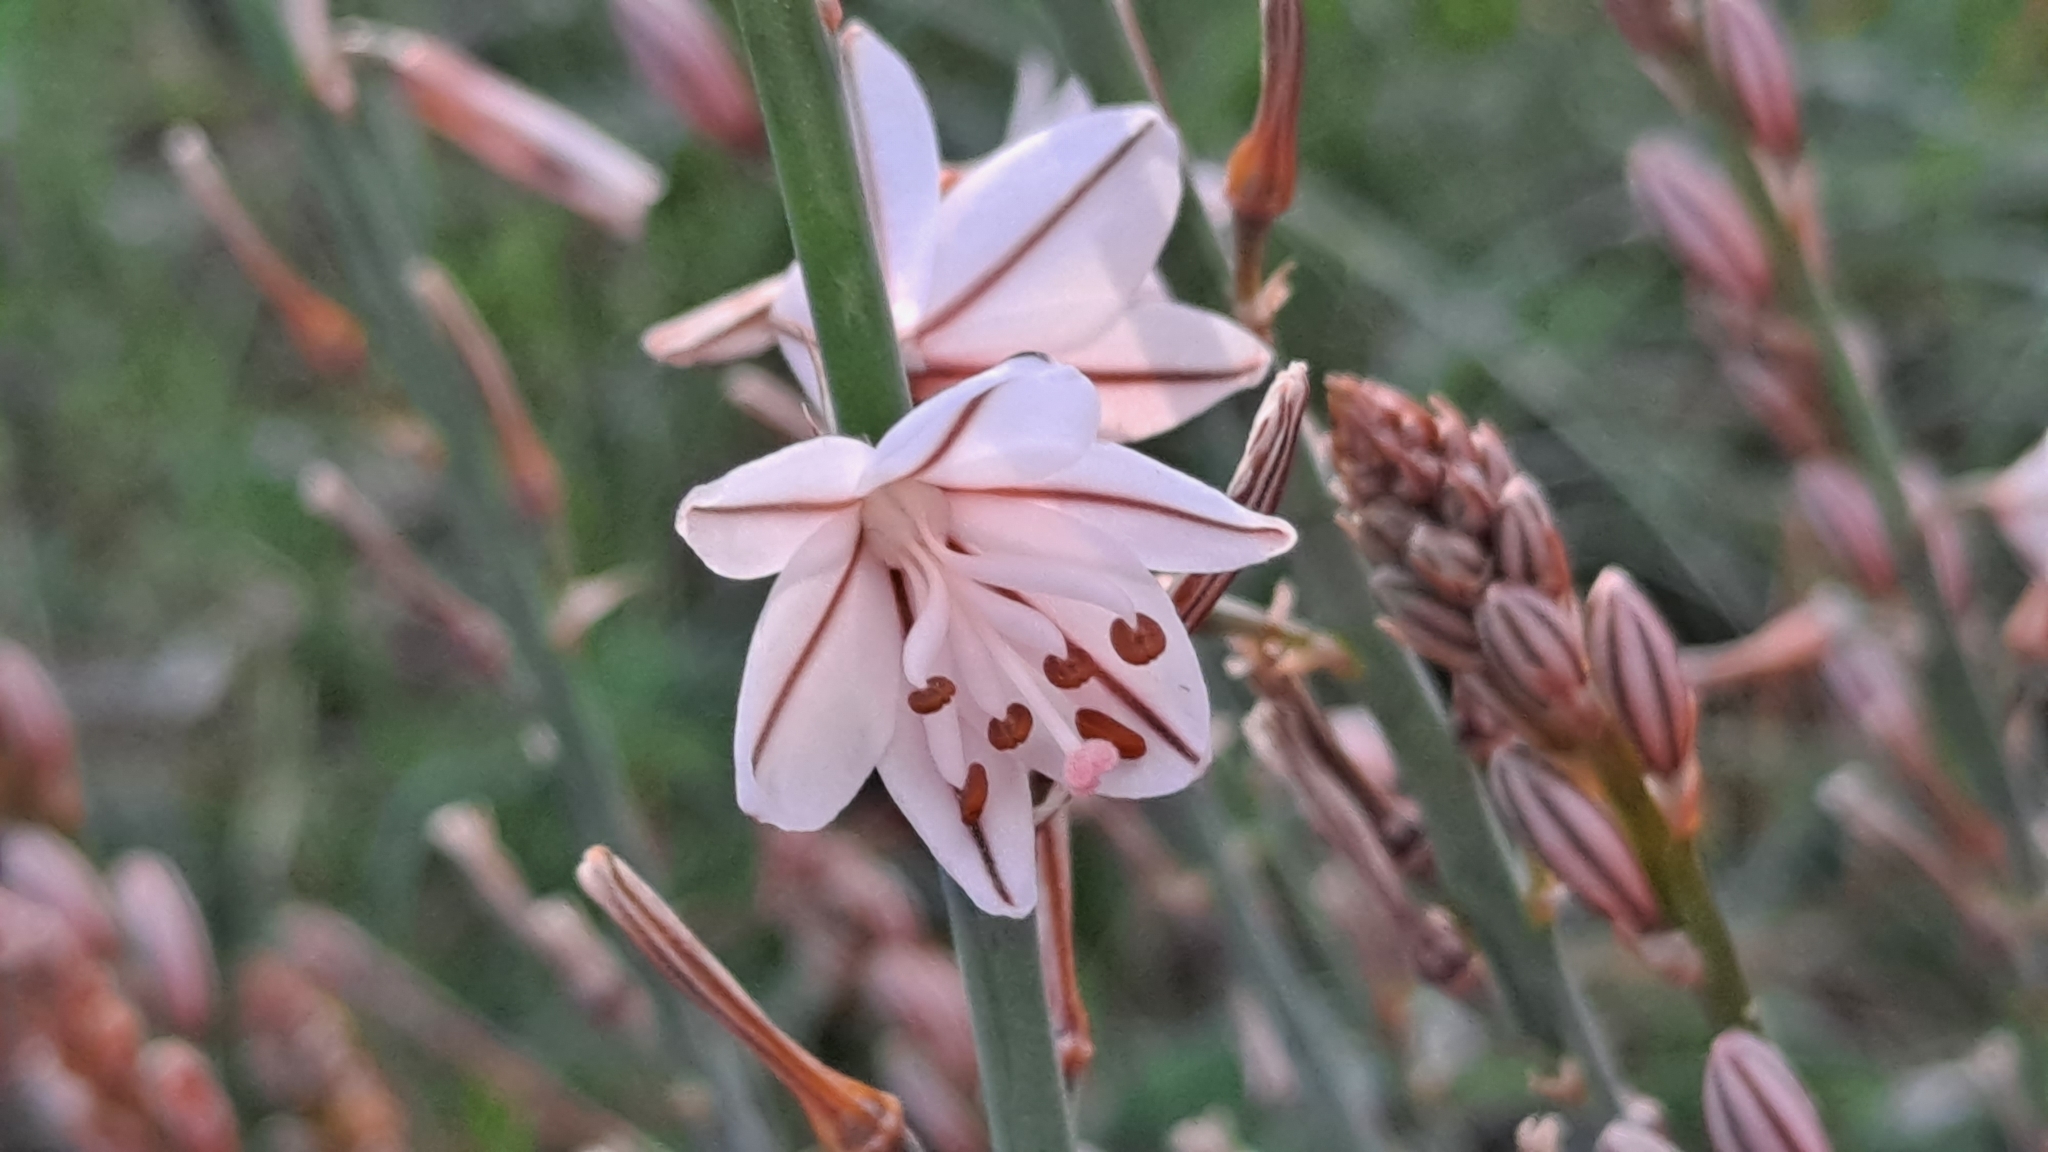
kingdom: Plantae
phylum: Tracheophyta
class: Liliopsida
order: Asparagales
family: Asphodelaceae
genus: Asphodelus
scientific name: Asphodelus fistulosus
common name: Onionweed
